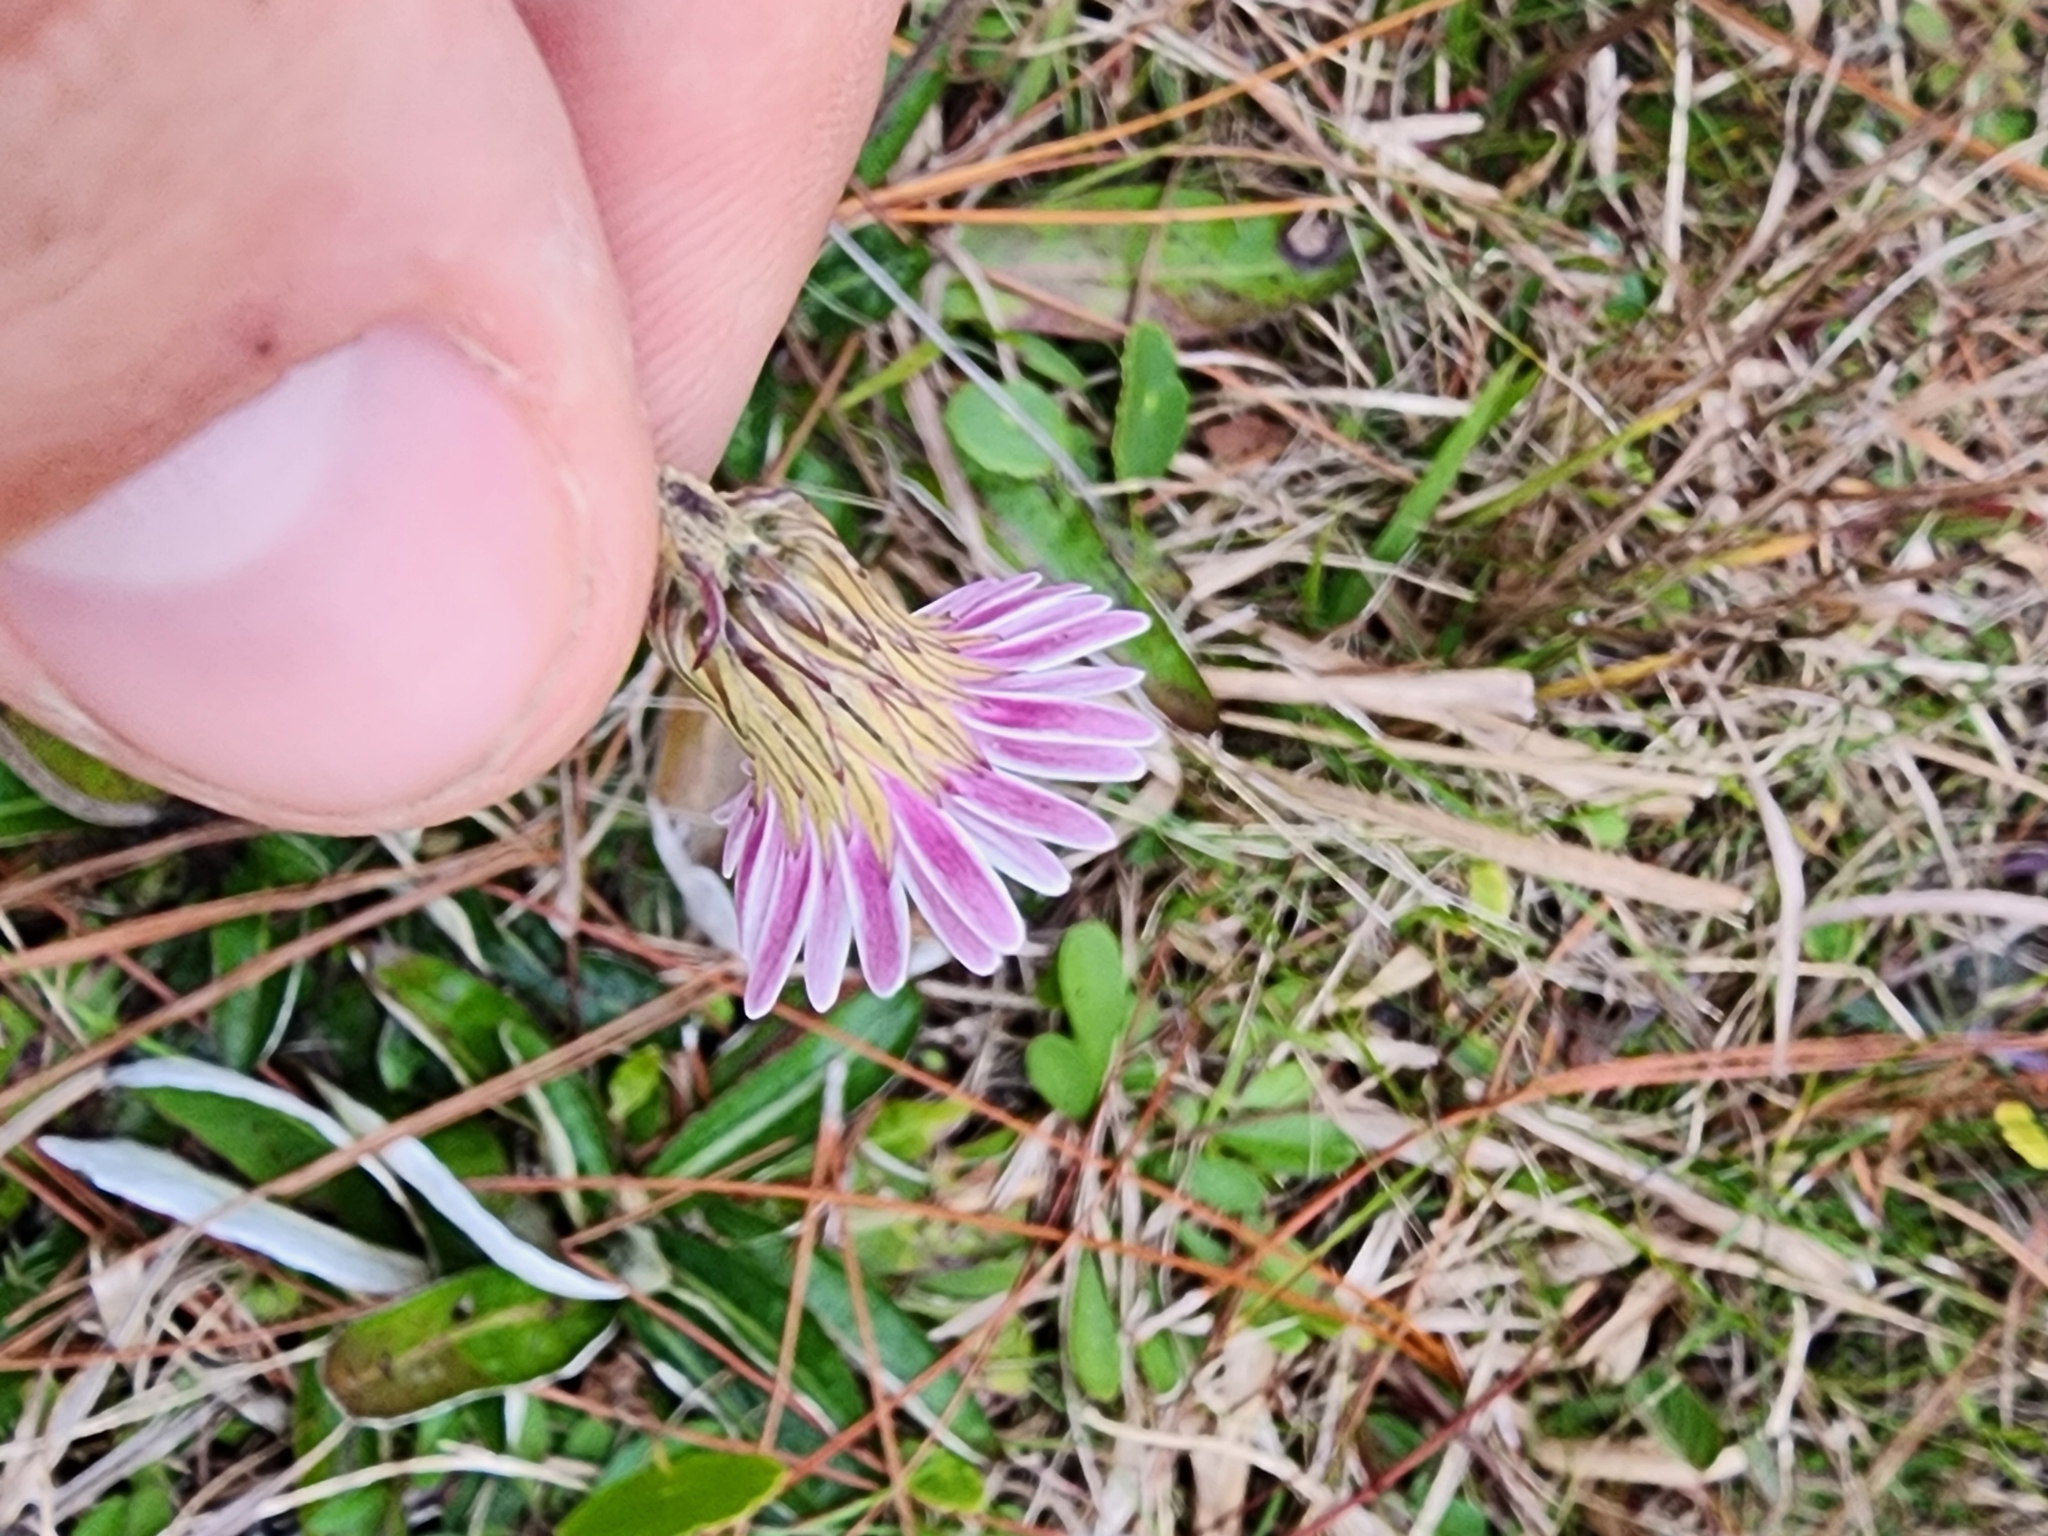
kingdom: Plantae
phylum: Tracheophyta
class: Magnoliopsida
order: Asterales
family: Asteraceae
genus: Chaptalia
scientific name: Chaptalia tomentosa
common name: Woolly sunbonnet
